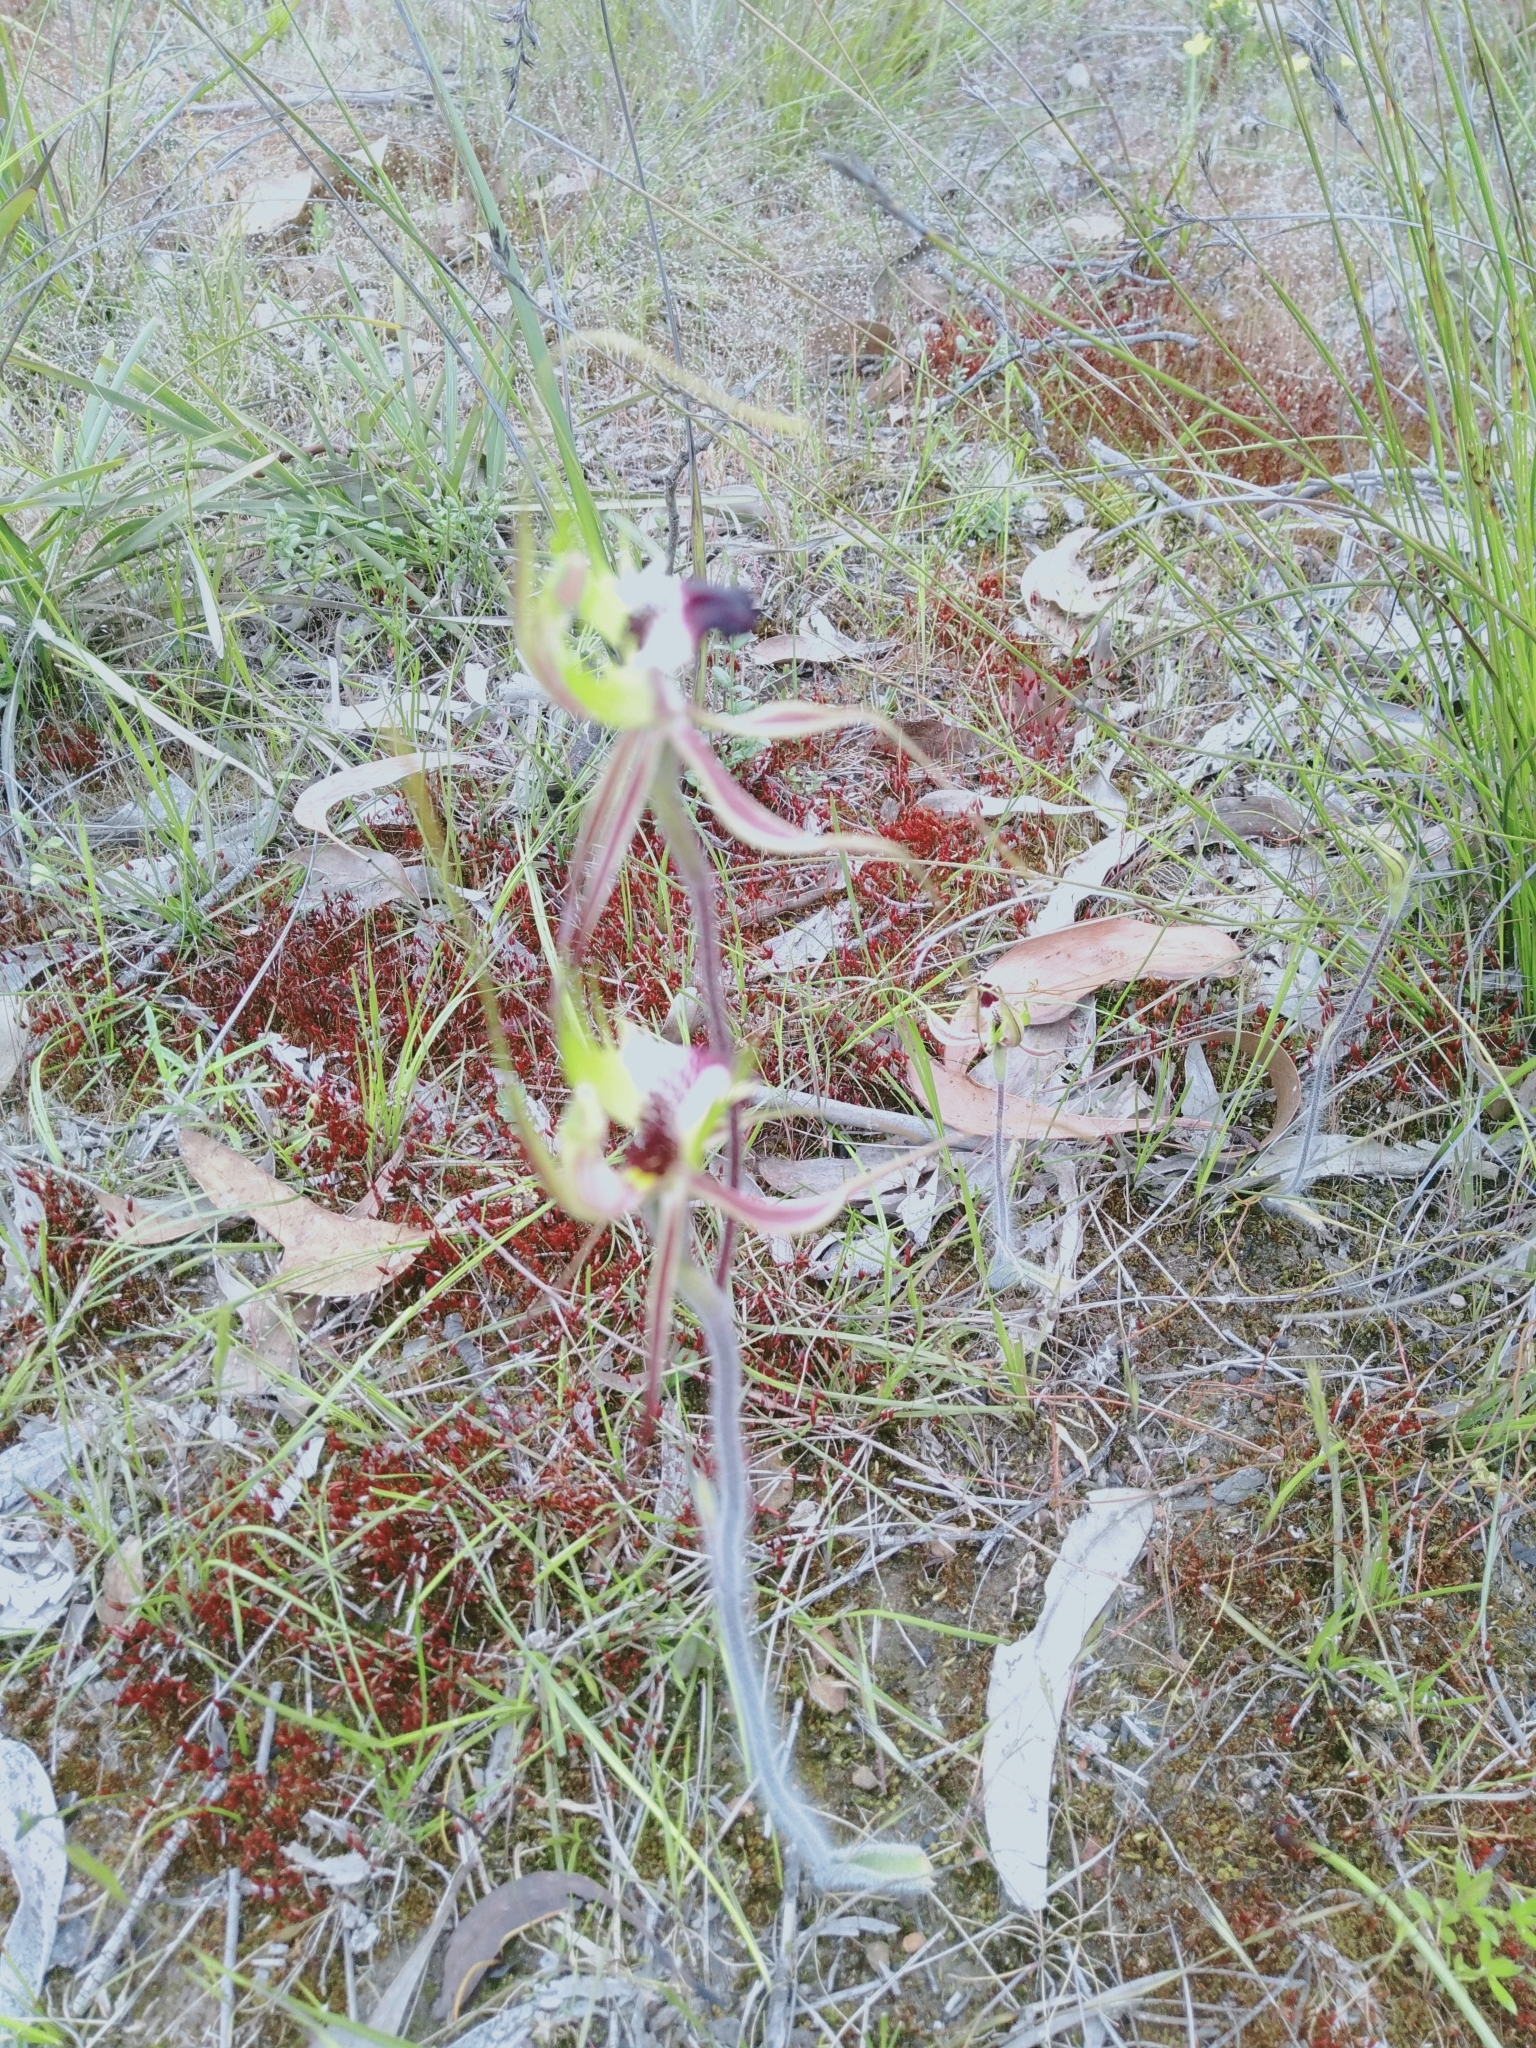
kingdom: Plantae
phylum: Tracheophyta
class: Liliopsida
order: Asparagales
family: Orchidaceae
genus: Caladenia
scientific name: Caladenia tentaculata
